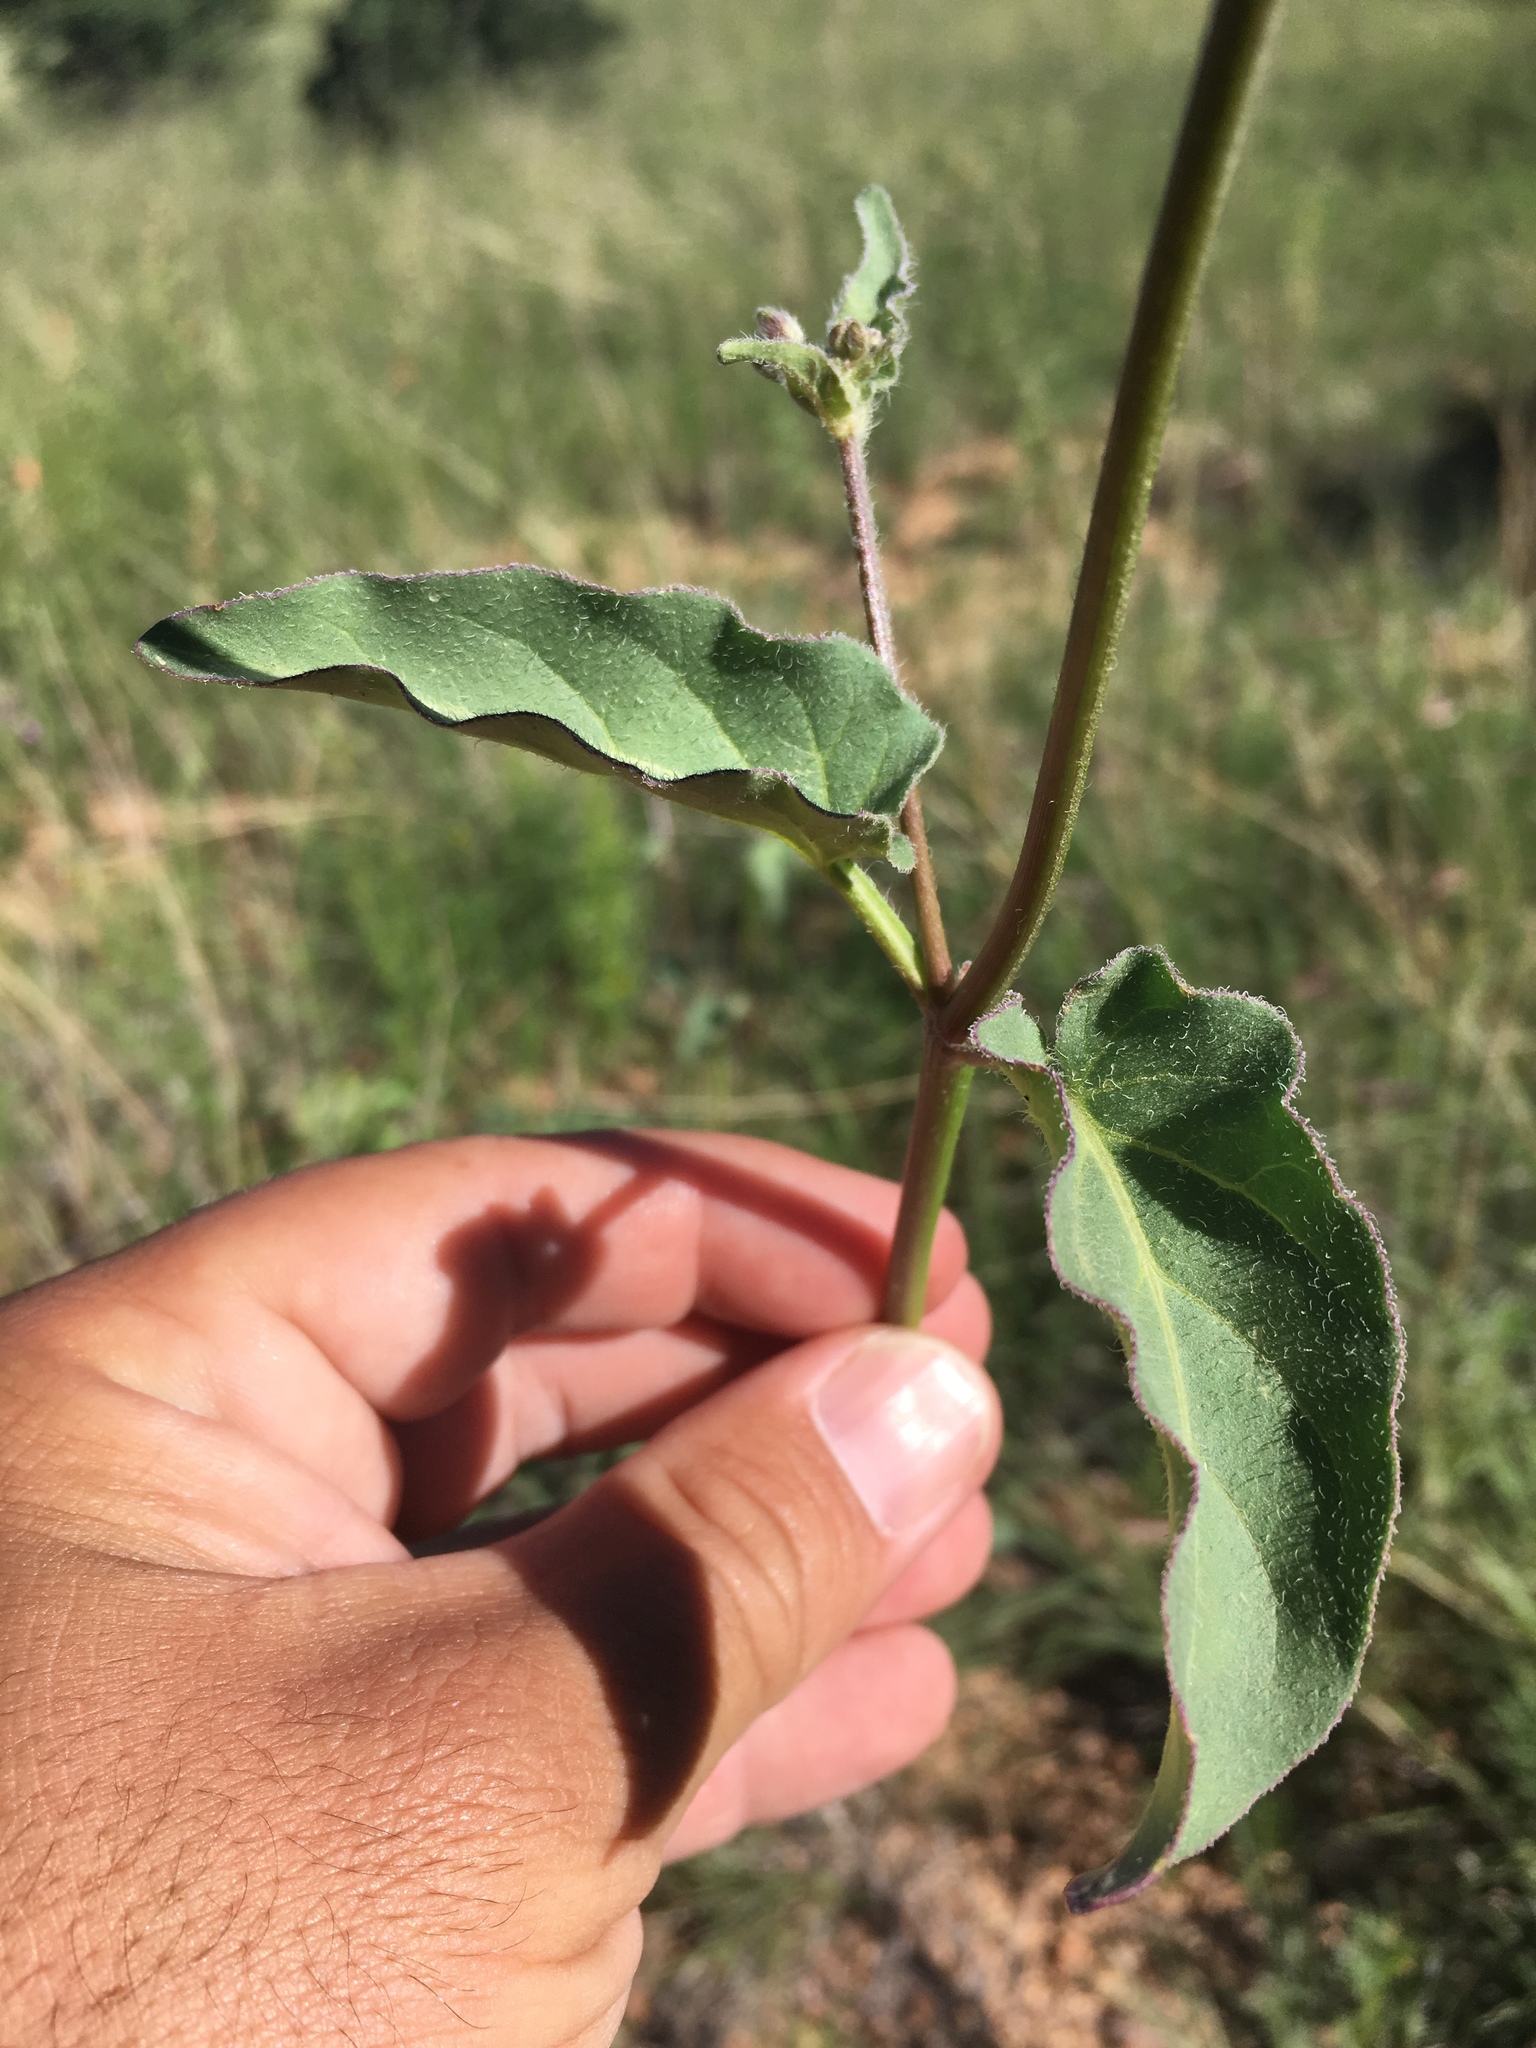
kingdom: Plantae
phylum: Tracheophyta
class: Magnoliopsida
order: Caryophyllales
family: Nyctaginaceae
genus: Mirabilis
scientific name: Mirabilis albida
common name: Hairy four-o'clock
